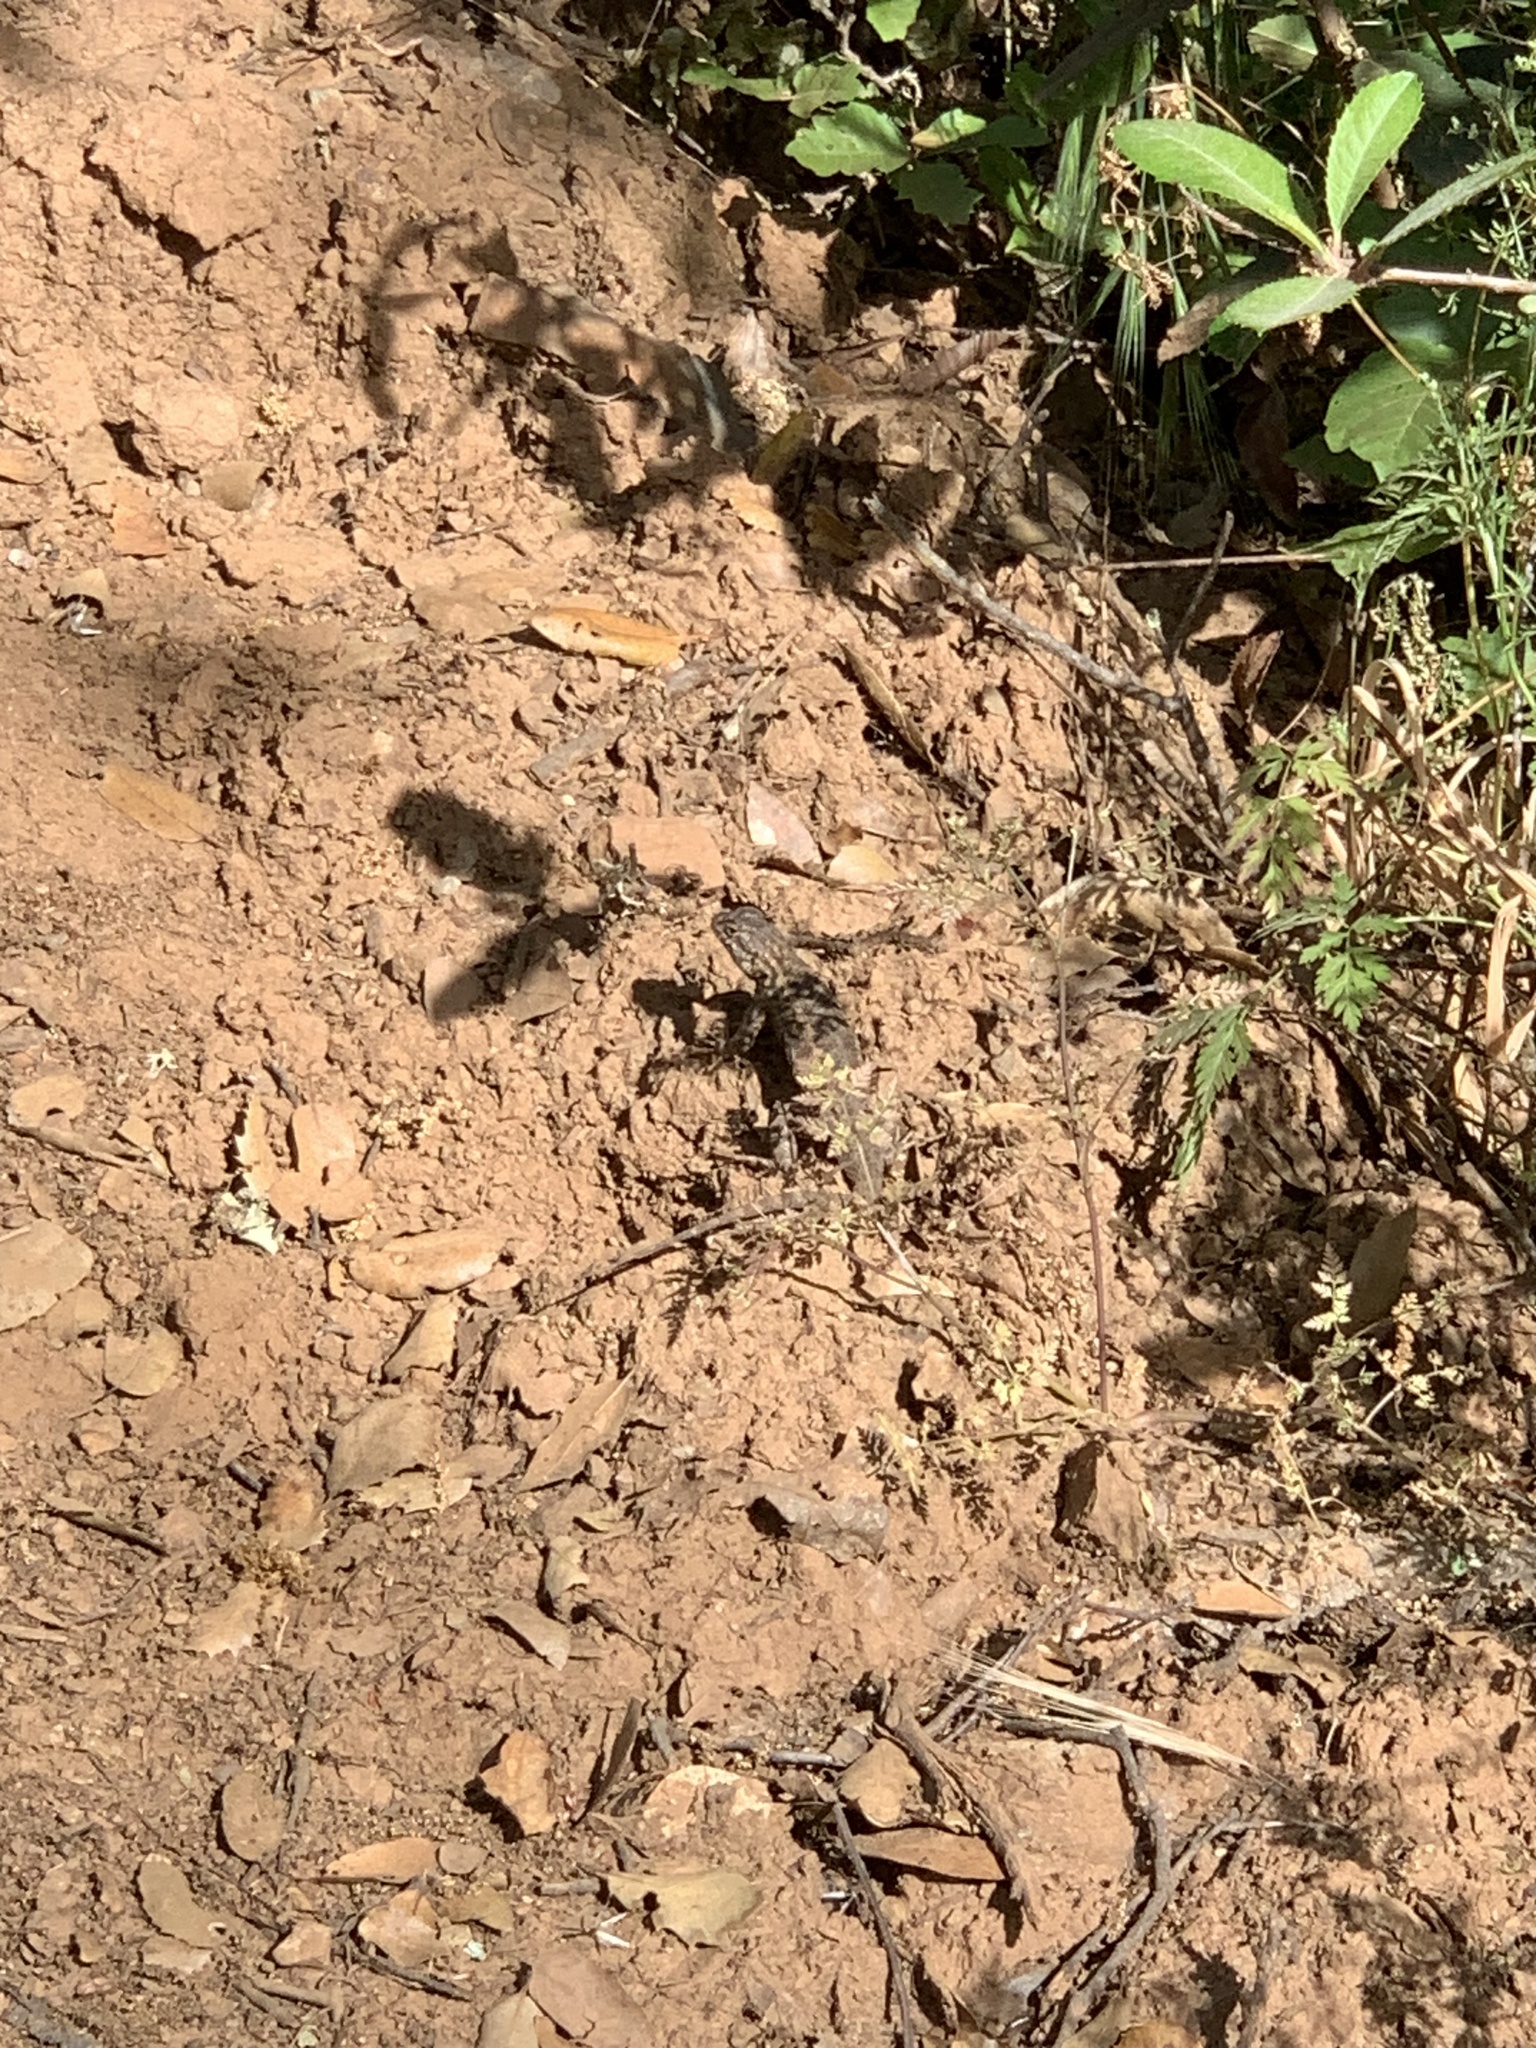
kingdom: Animalia
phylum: Chordata
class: Squamata
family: Phrynosomatidae
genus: Sceloporus
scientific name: Sceloporus occidentalis
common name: Western fence lizard
